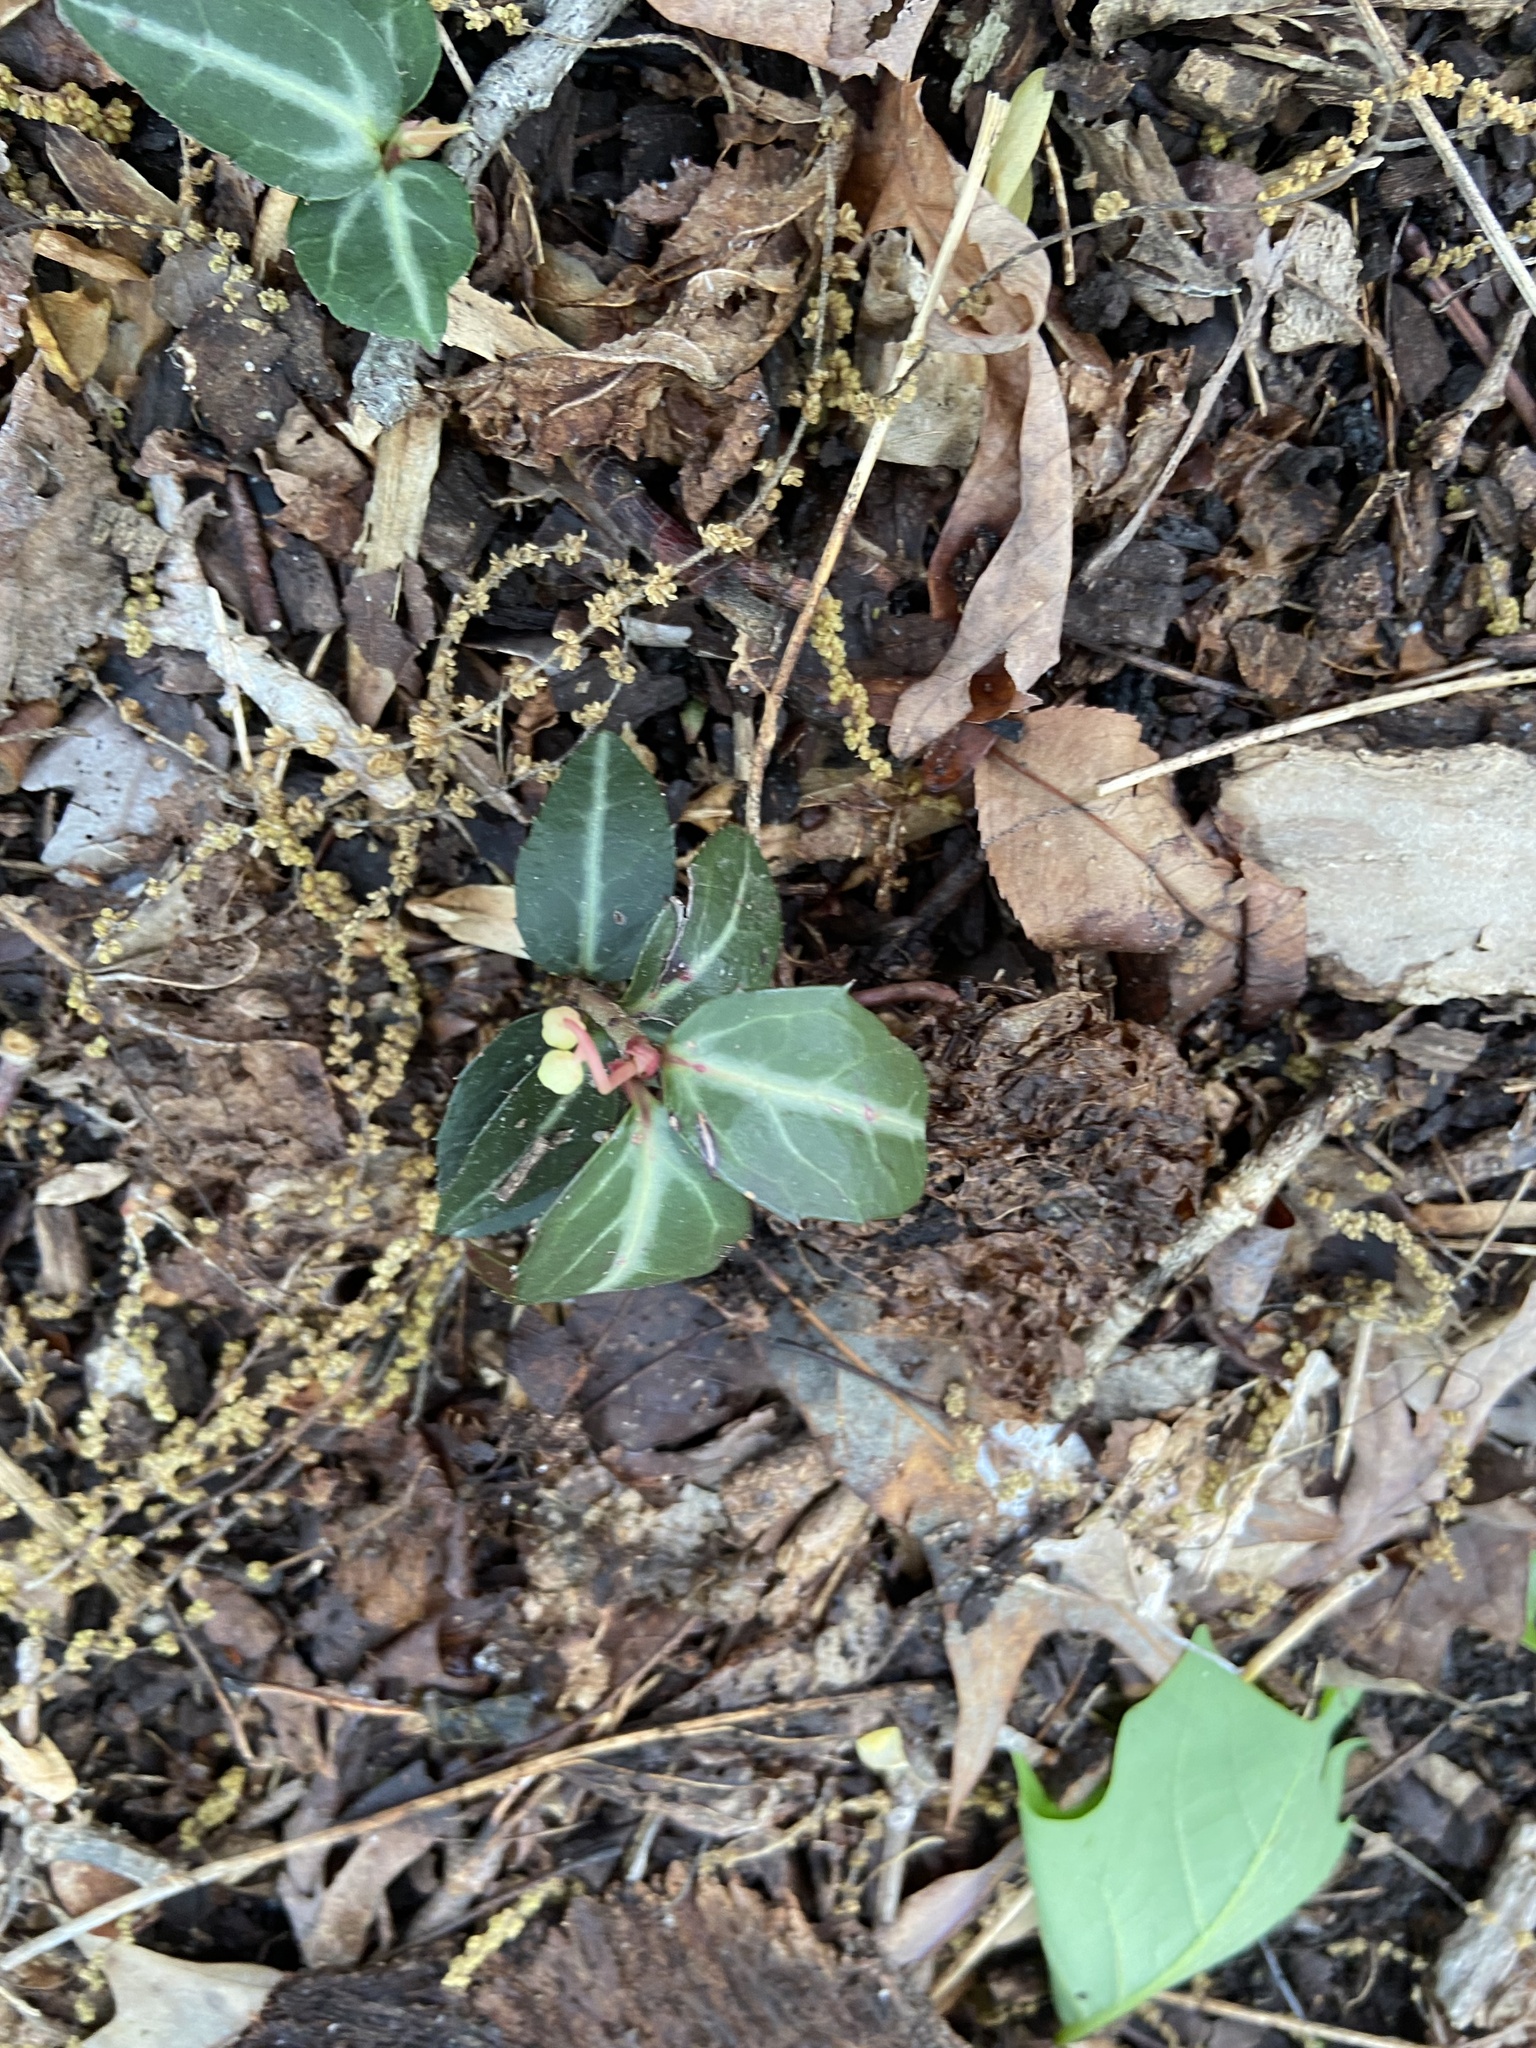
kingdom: Plantae
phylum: Tracheophyta
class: Magnoliopsida
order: Ericales
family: Ericaceae
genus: Chimaphila
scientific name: Chimaphila maculata
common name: Spotted pipsissewa
